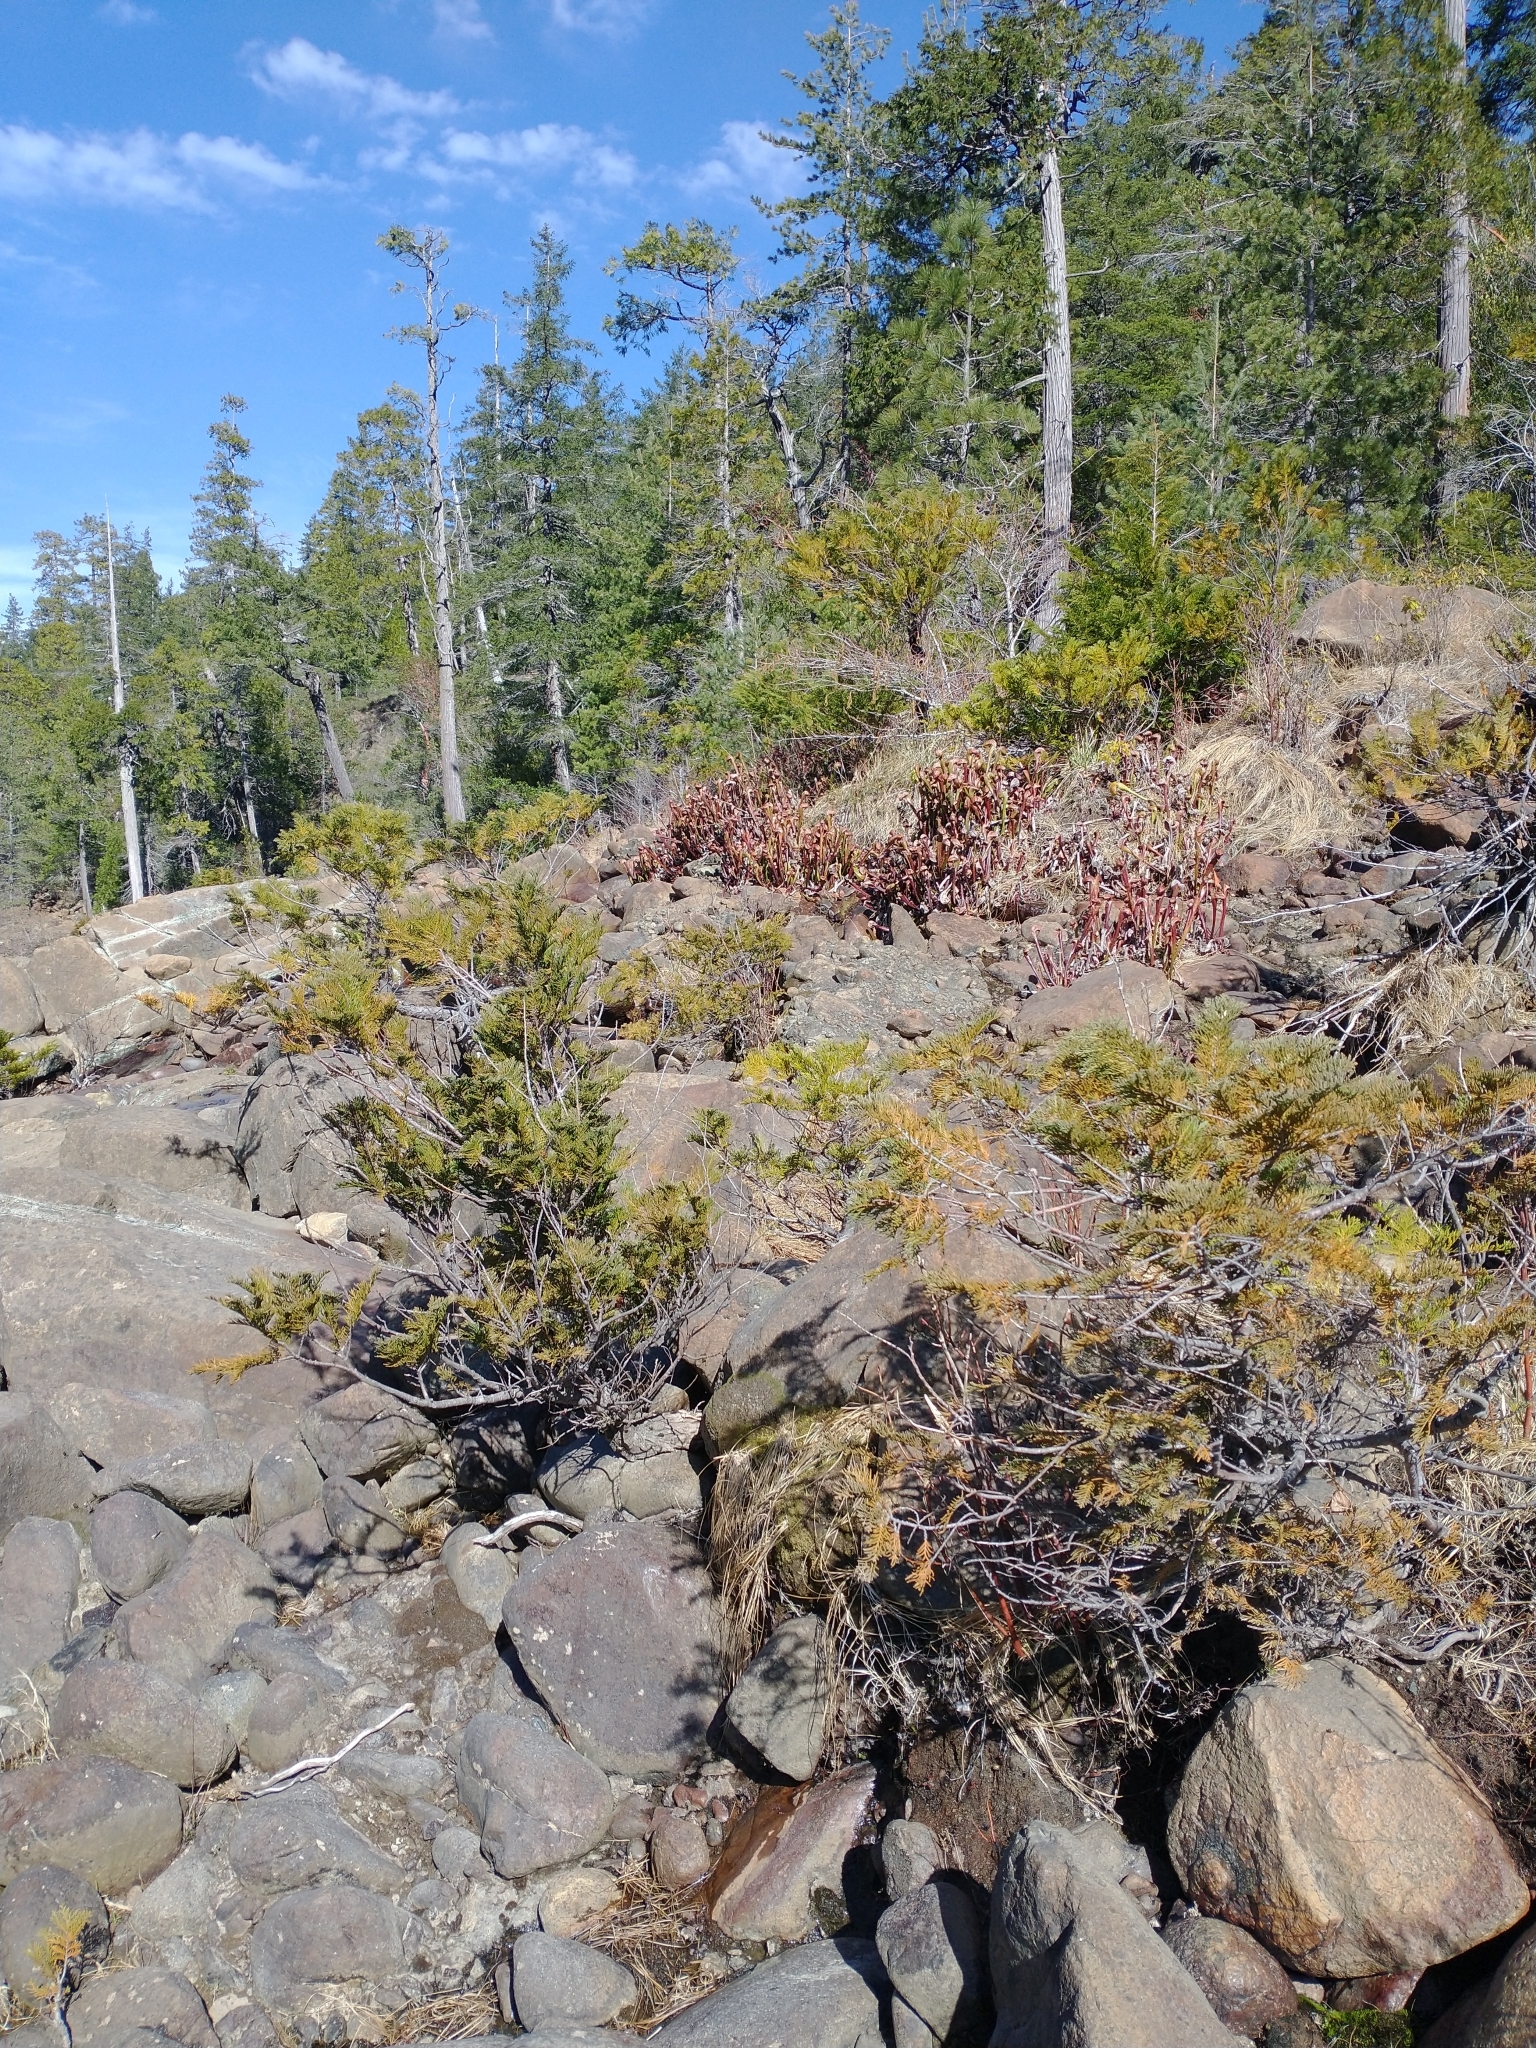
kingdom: Plantae
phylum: Tracheophyta
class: Magnoliopsida
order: Ericales
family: Sarraceniaceae
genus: Darlingtonia
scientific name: Darlingtonia californica
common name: California pitcher plant
